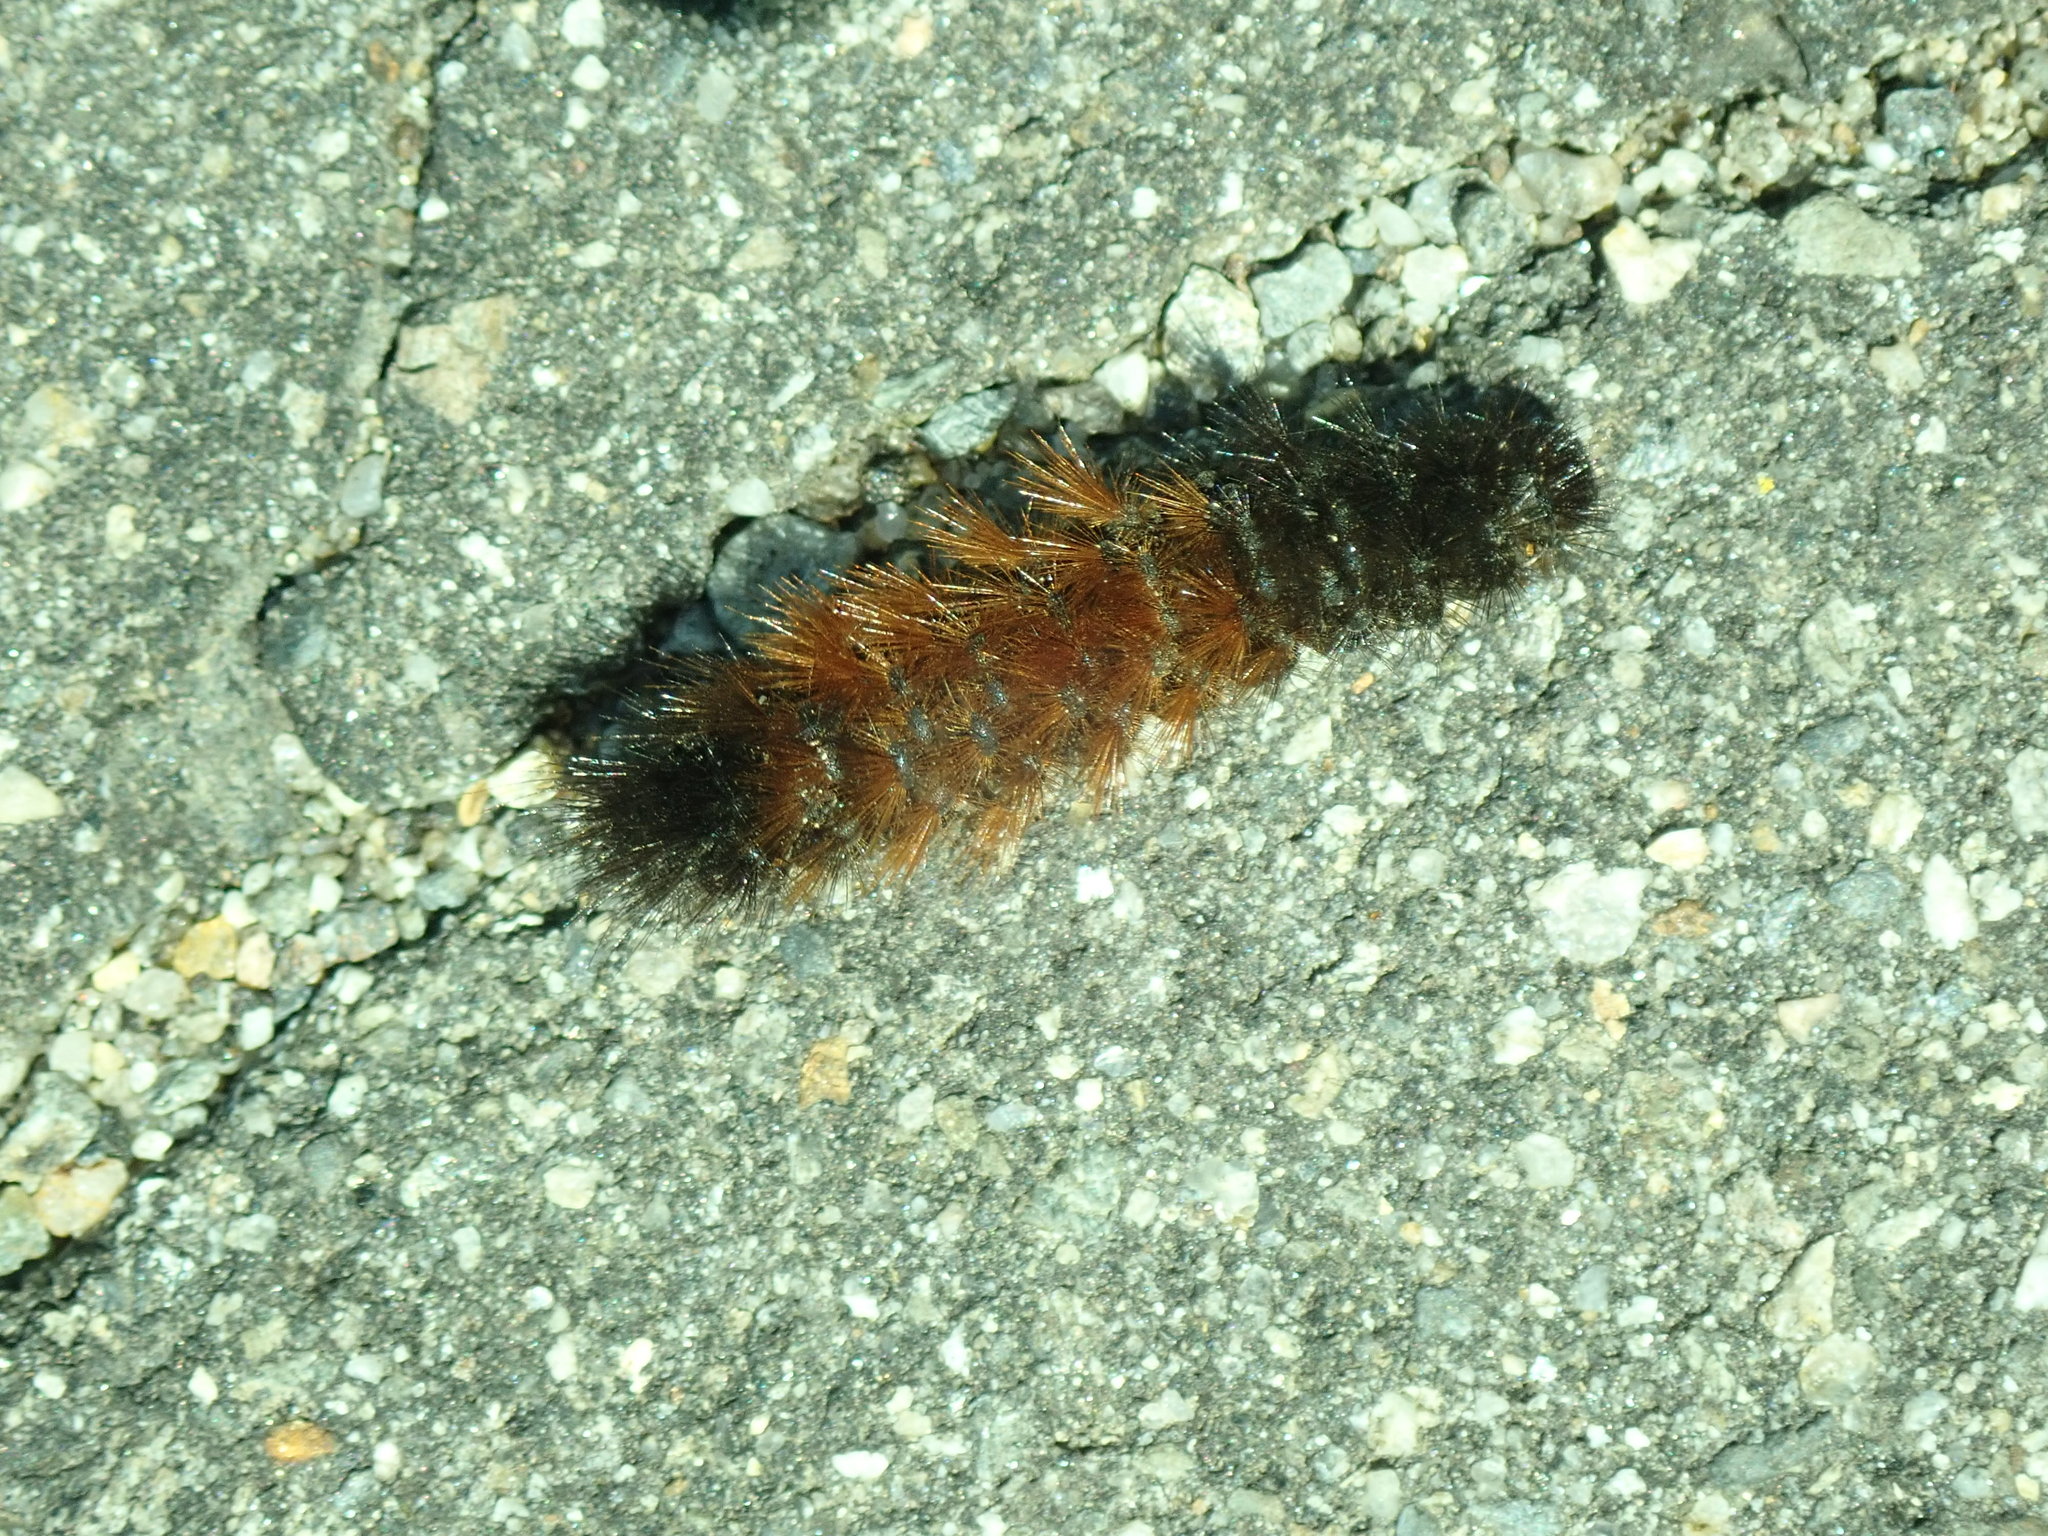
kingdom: Animalia
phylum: Arthropoda
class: Insecta
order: Lepidoptera
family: Erebidae
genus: Pyrrharctia
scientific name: Pyrrharctia isabella
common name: Isabella tiger moth
